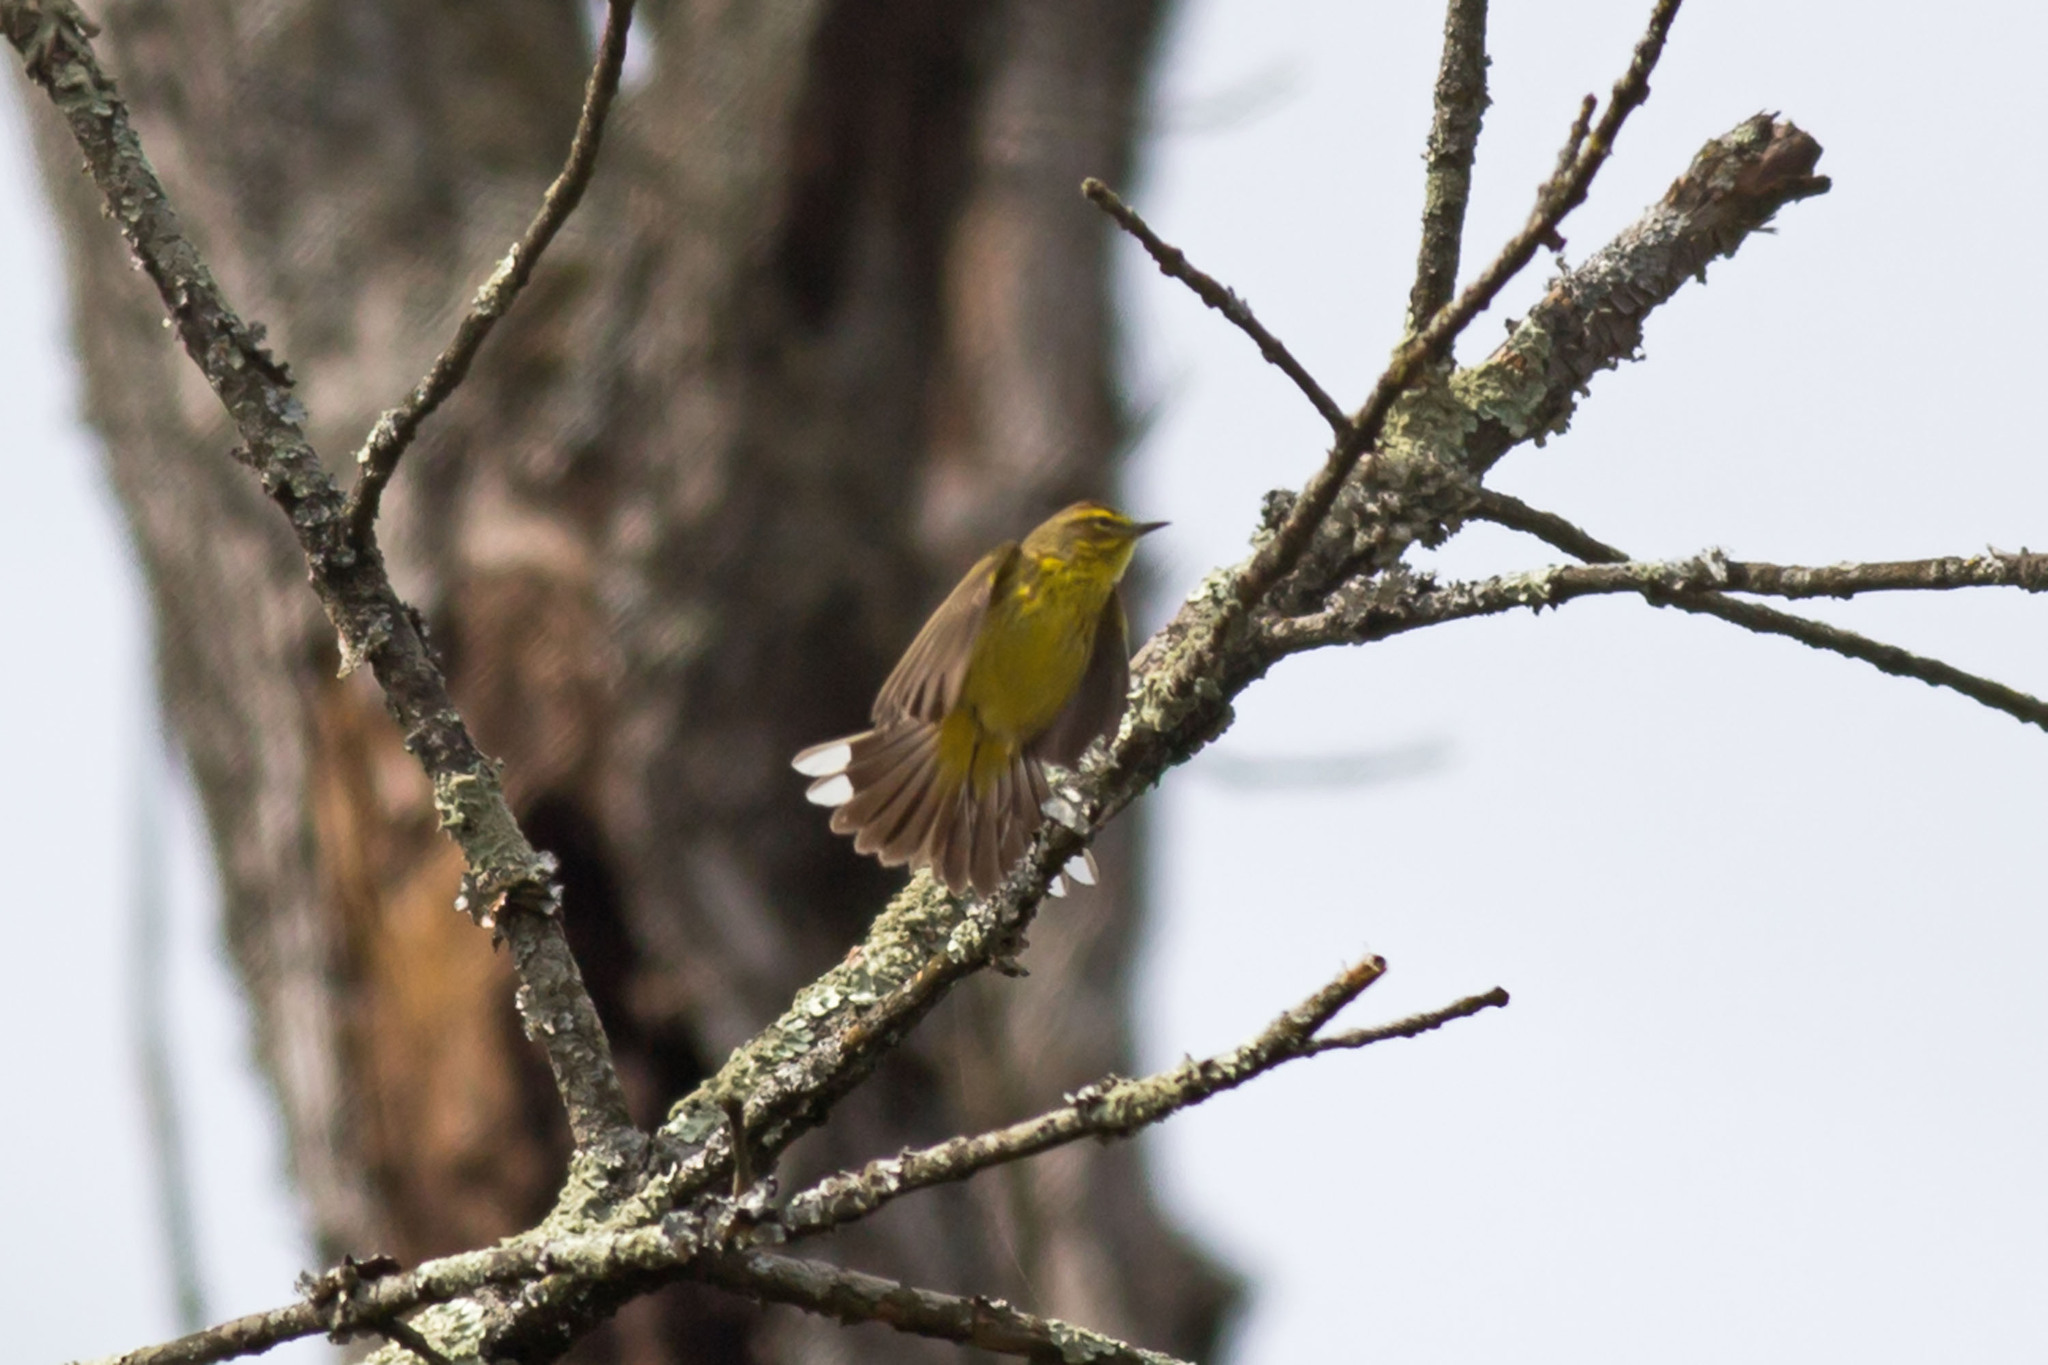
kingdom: Animalia
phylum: Chordata
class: Aves
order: Passeriformes
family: Parulidae
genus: Setophaga
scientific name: Setophaga palmarum
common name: Palm warbler
